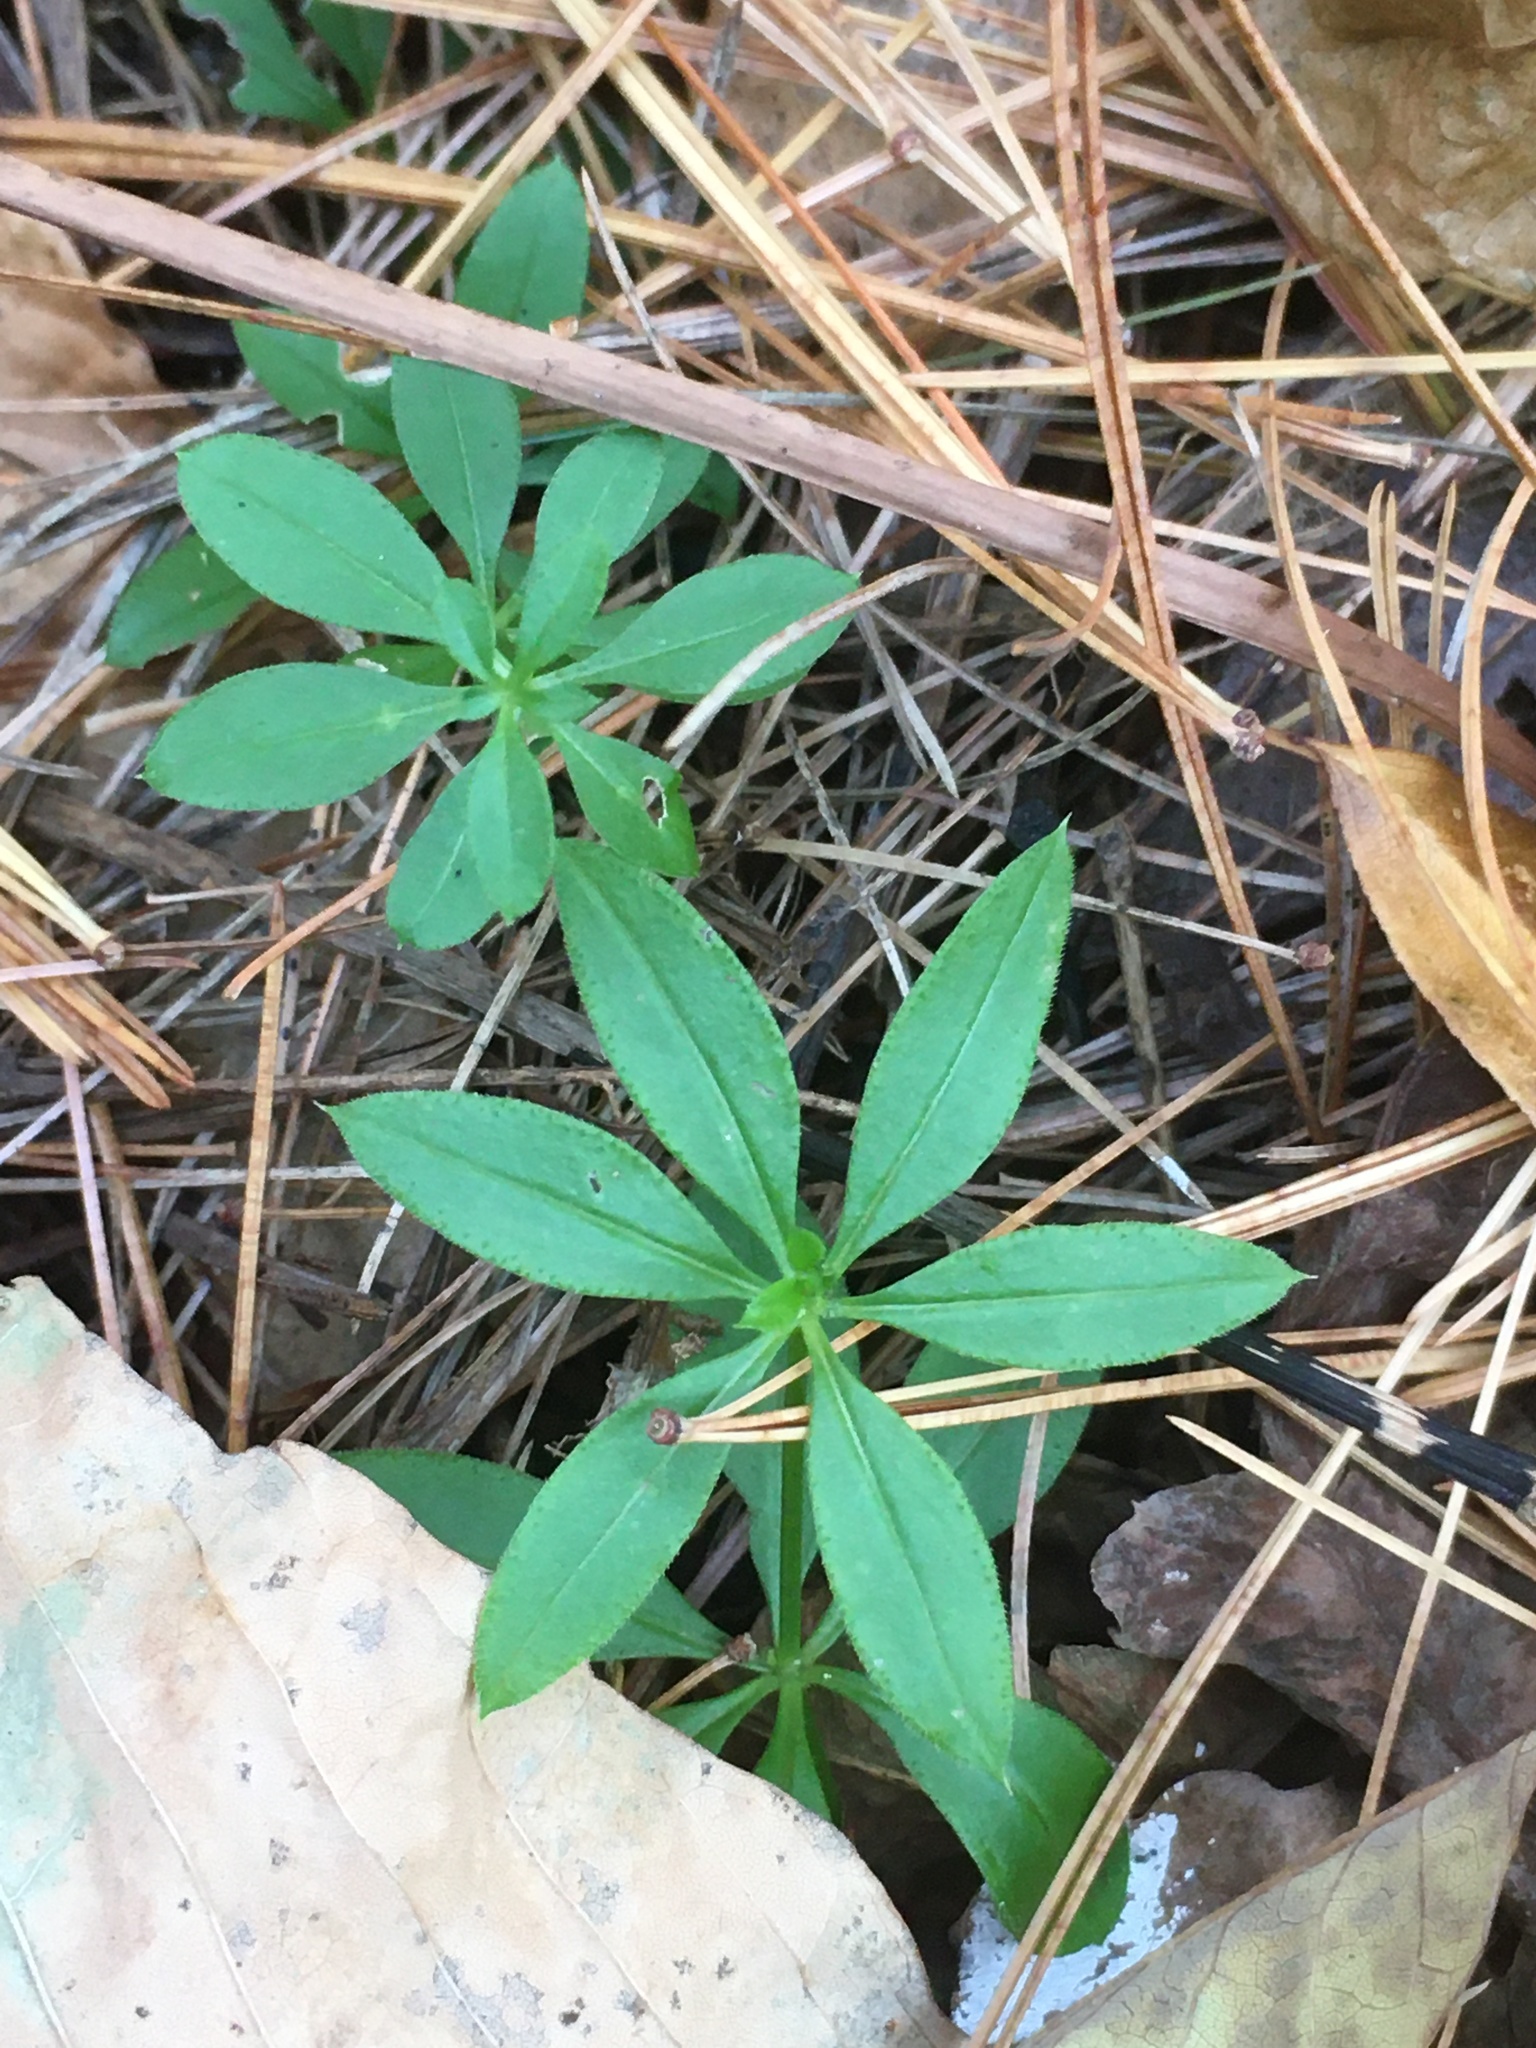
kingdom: Plantae
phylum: Tracheophyta
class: Magnoliopsida
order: Gentianales
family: Rubiaceae
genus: Galium
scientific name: Galium triflorum
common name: Fragrant bedstraw
